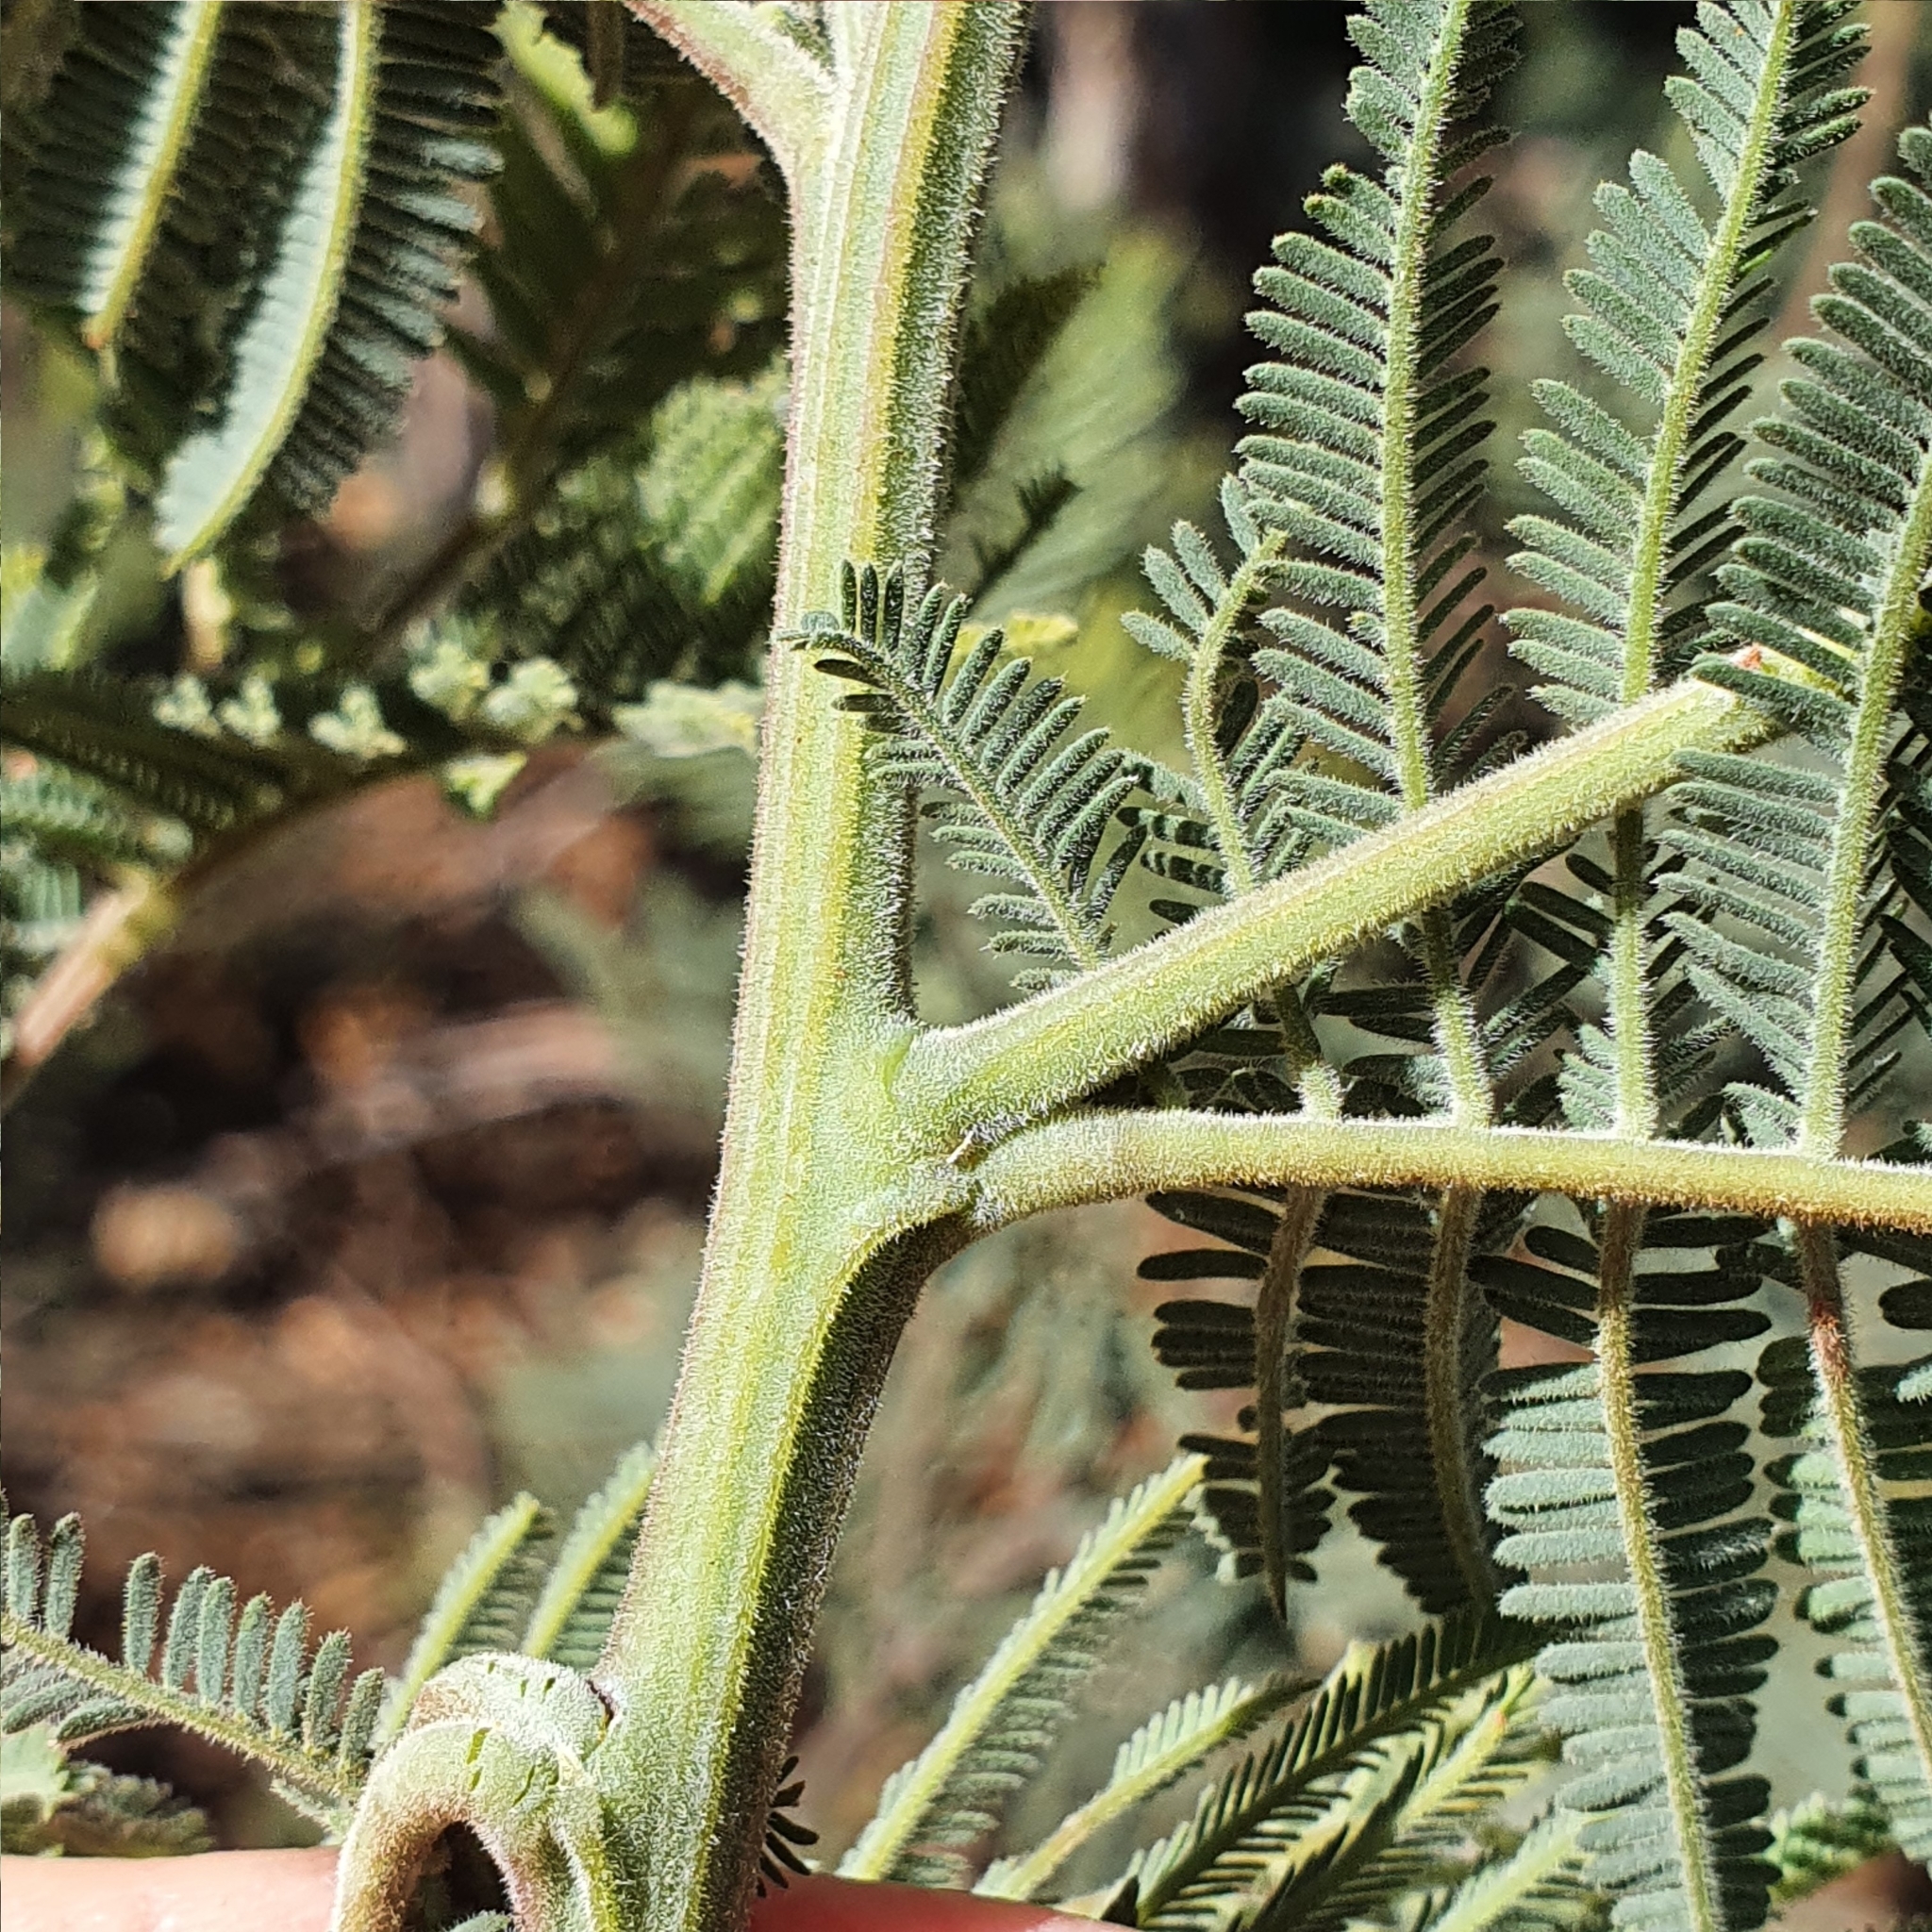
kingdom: Plantae
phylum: Tracheophyta
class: Magnoliopsida
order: Fabales
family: Fabaceae
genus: Acacia
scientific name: Acacia dealbata
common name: Silver wattle
